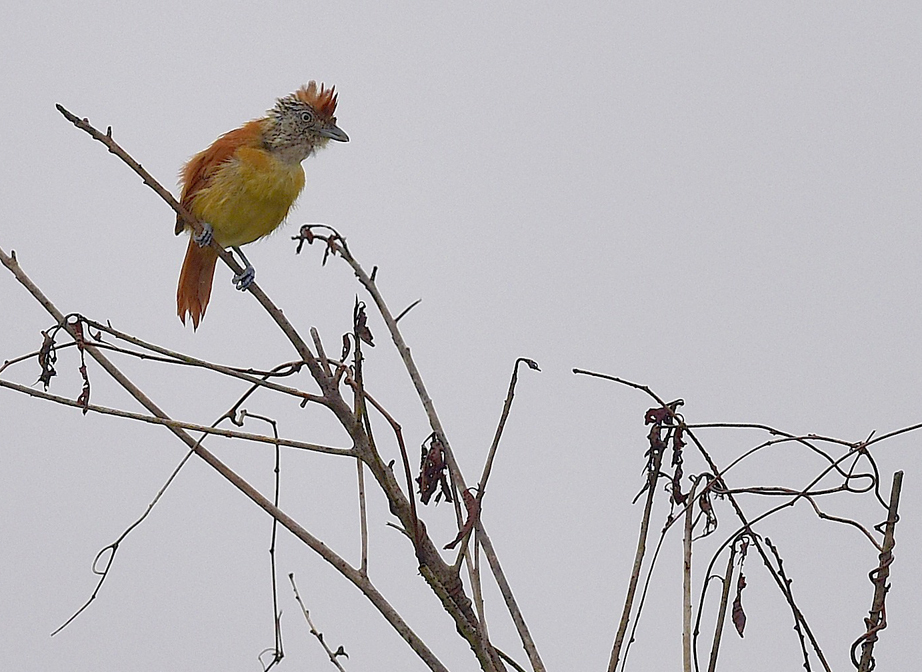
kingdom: Animalia
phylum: Chordata
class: Aves
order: Passeriformes
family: Thamnophilidae
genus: Thamnophilus
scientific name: Thamnophilus doliatus
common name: Barred antshrike
